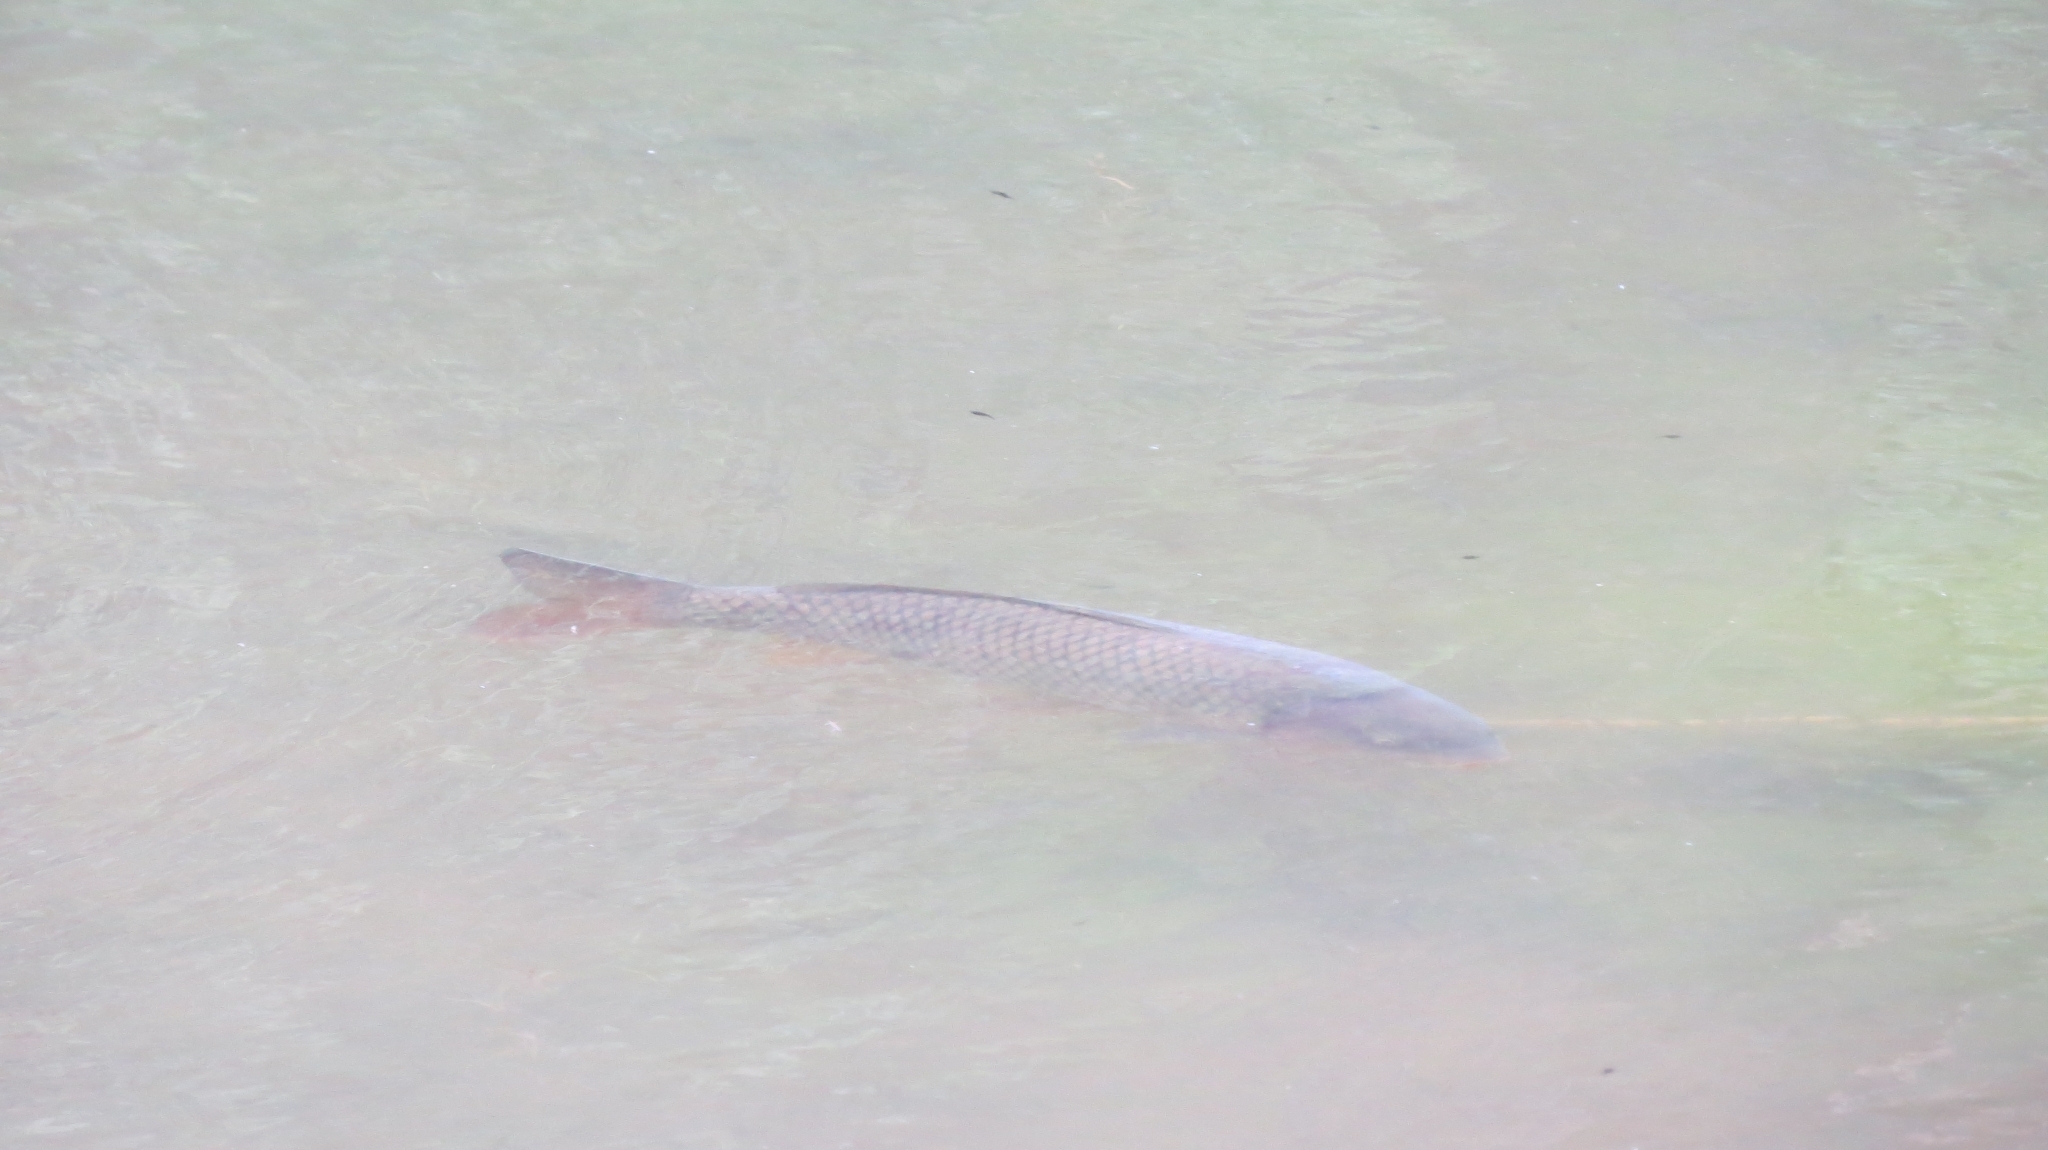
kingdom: Animalia
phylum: Chordata
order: Cypriniformes
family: Cyprinidae
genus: Cyprinus
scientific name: Cyprinus carpio
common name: Common carp
